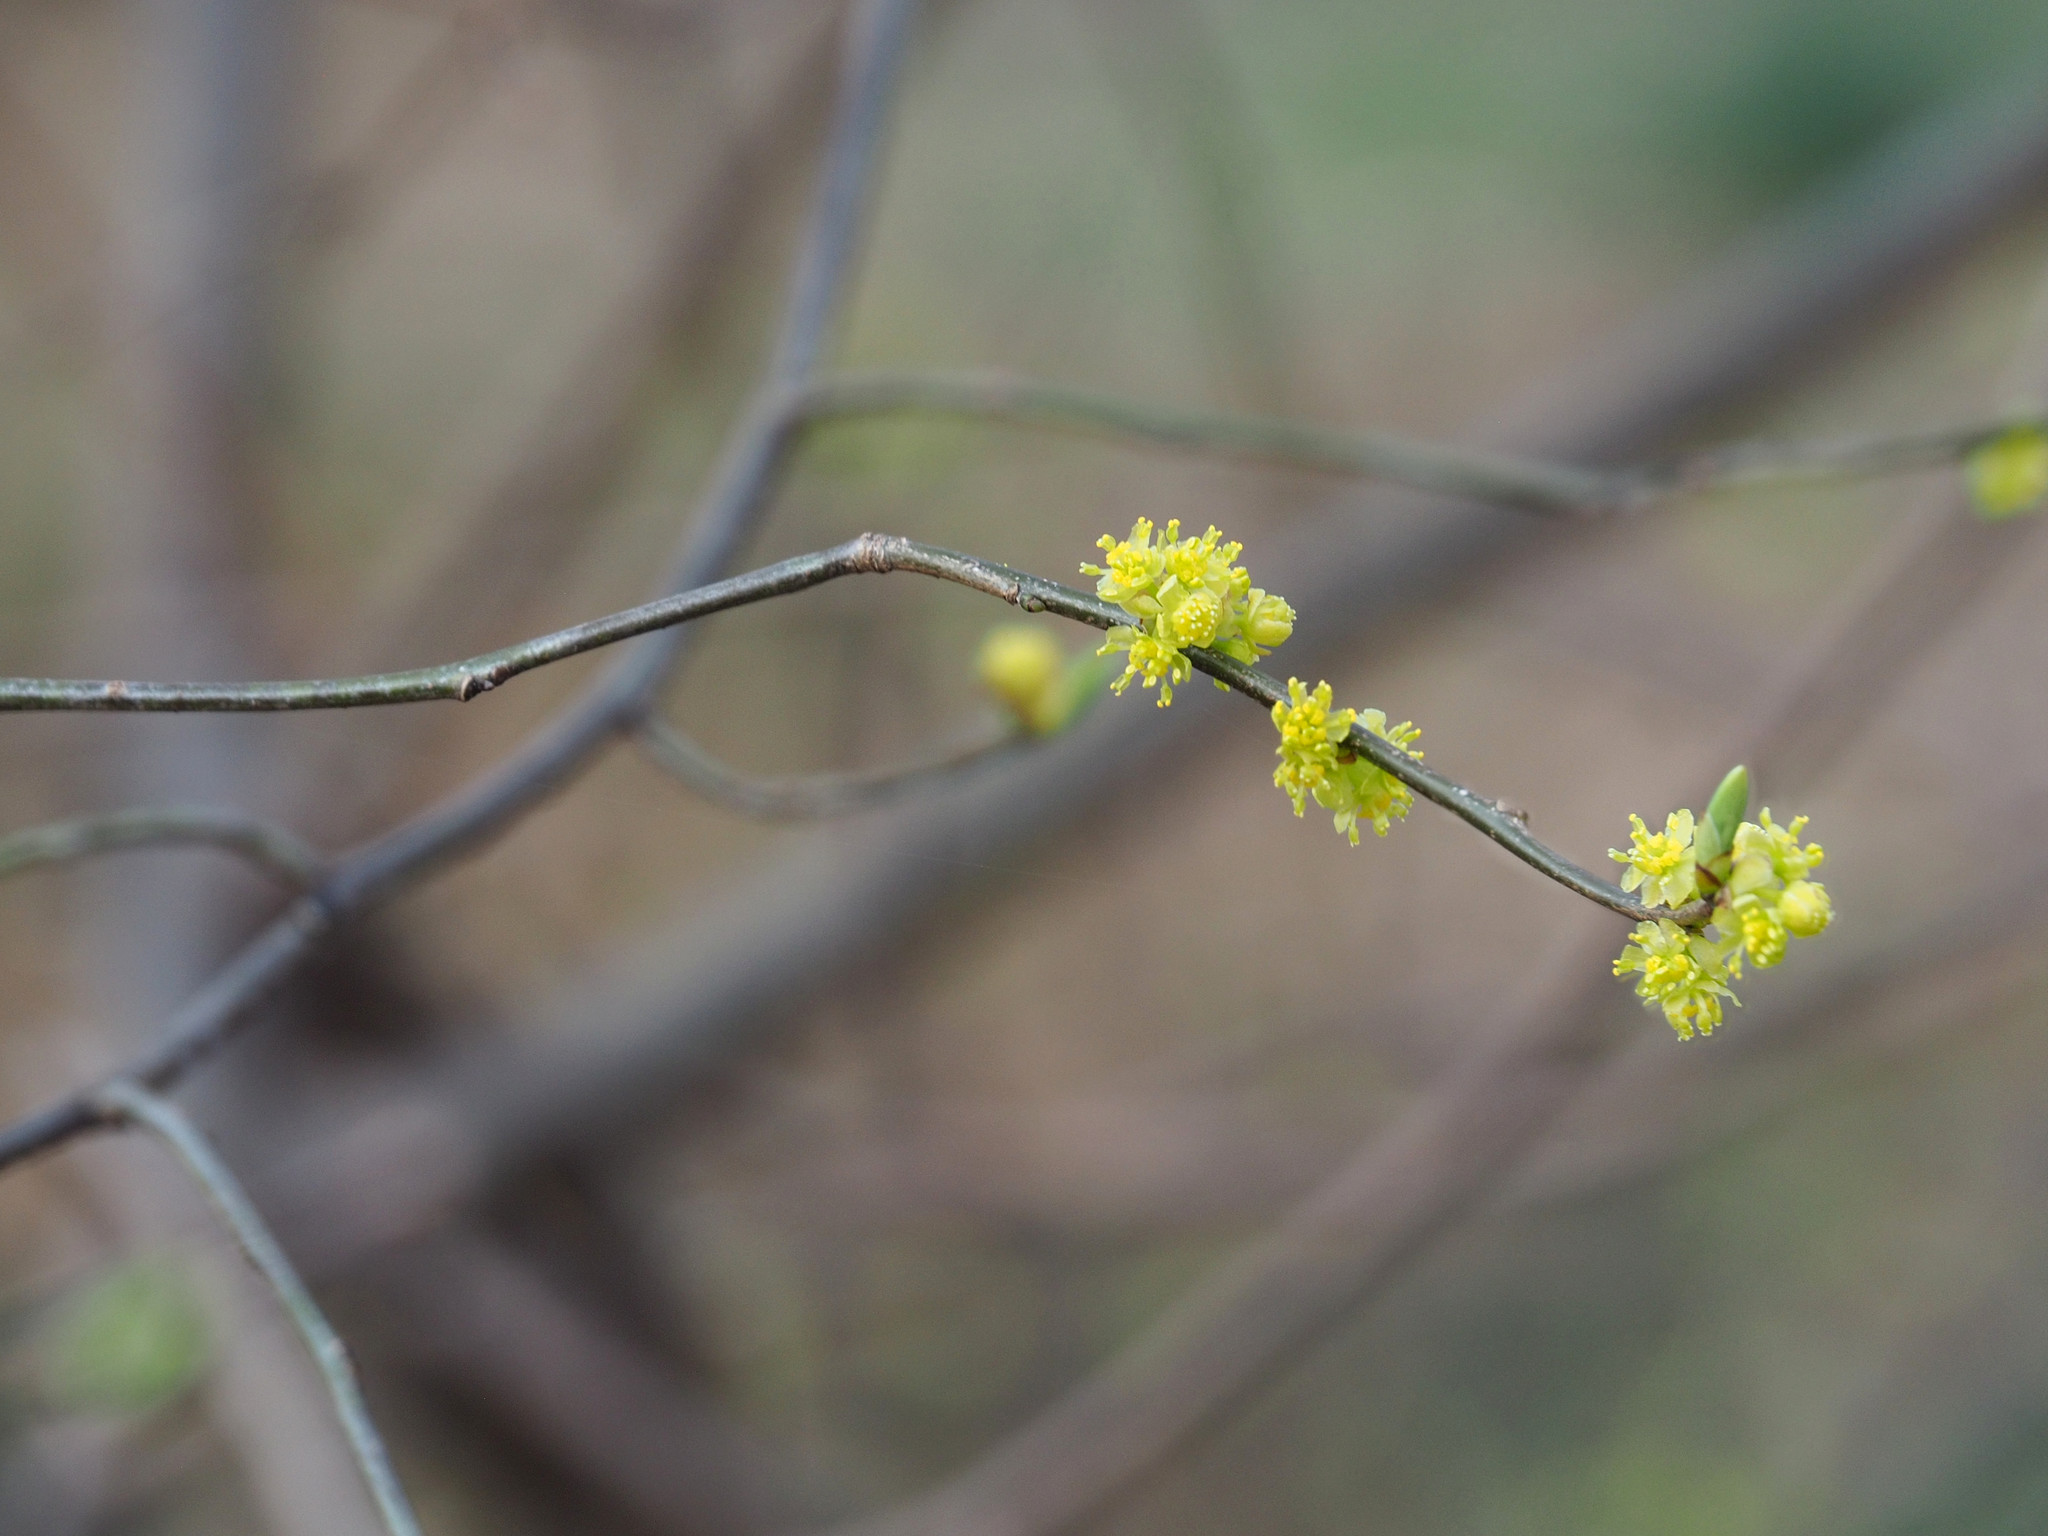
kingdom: Plantae
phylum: Tracheophyta
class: Magnoliopsida
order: Laurales
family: Lauraceae
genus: Lindera
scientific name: Lindera benzoin
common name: Spicebush
